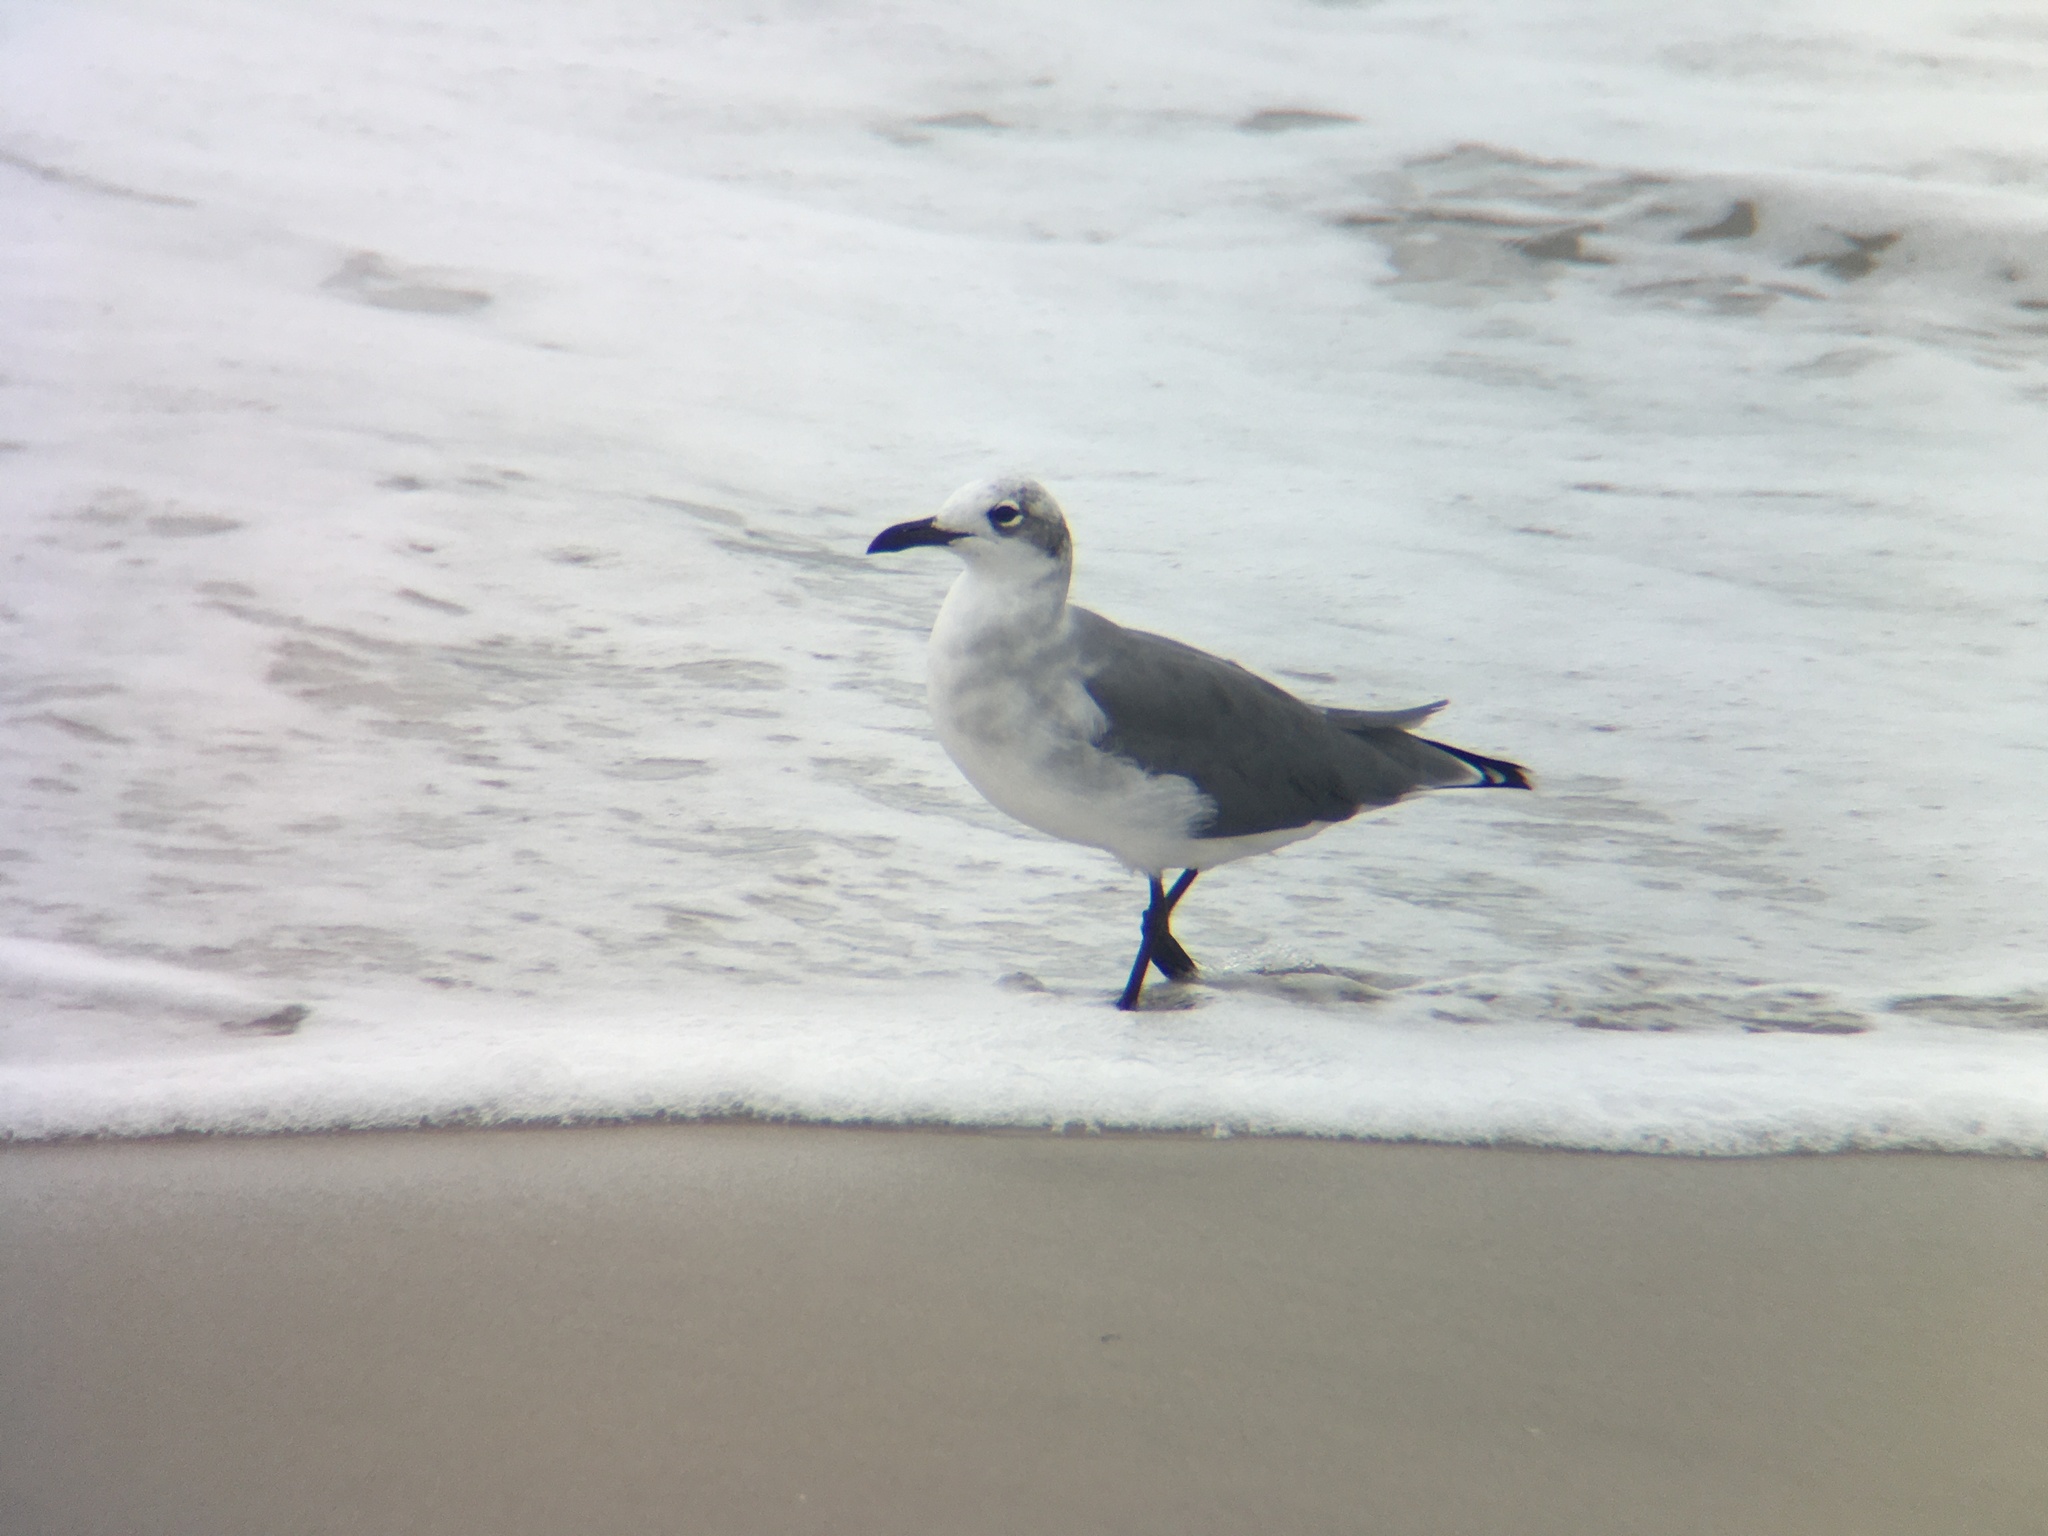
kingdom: Animalia
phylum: Chordata
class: Aves
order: Charadriiformes
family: Laridae
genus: Leucophaeus
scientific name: Leucophaeus atricilla
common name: Laughing gull
